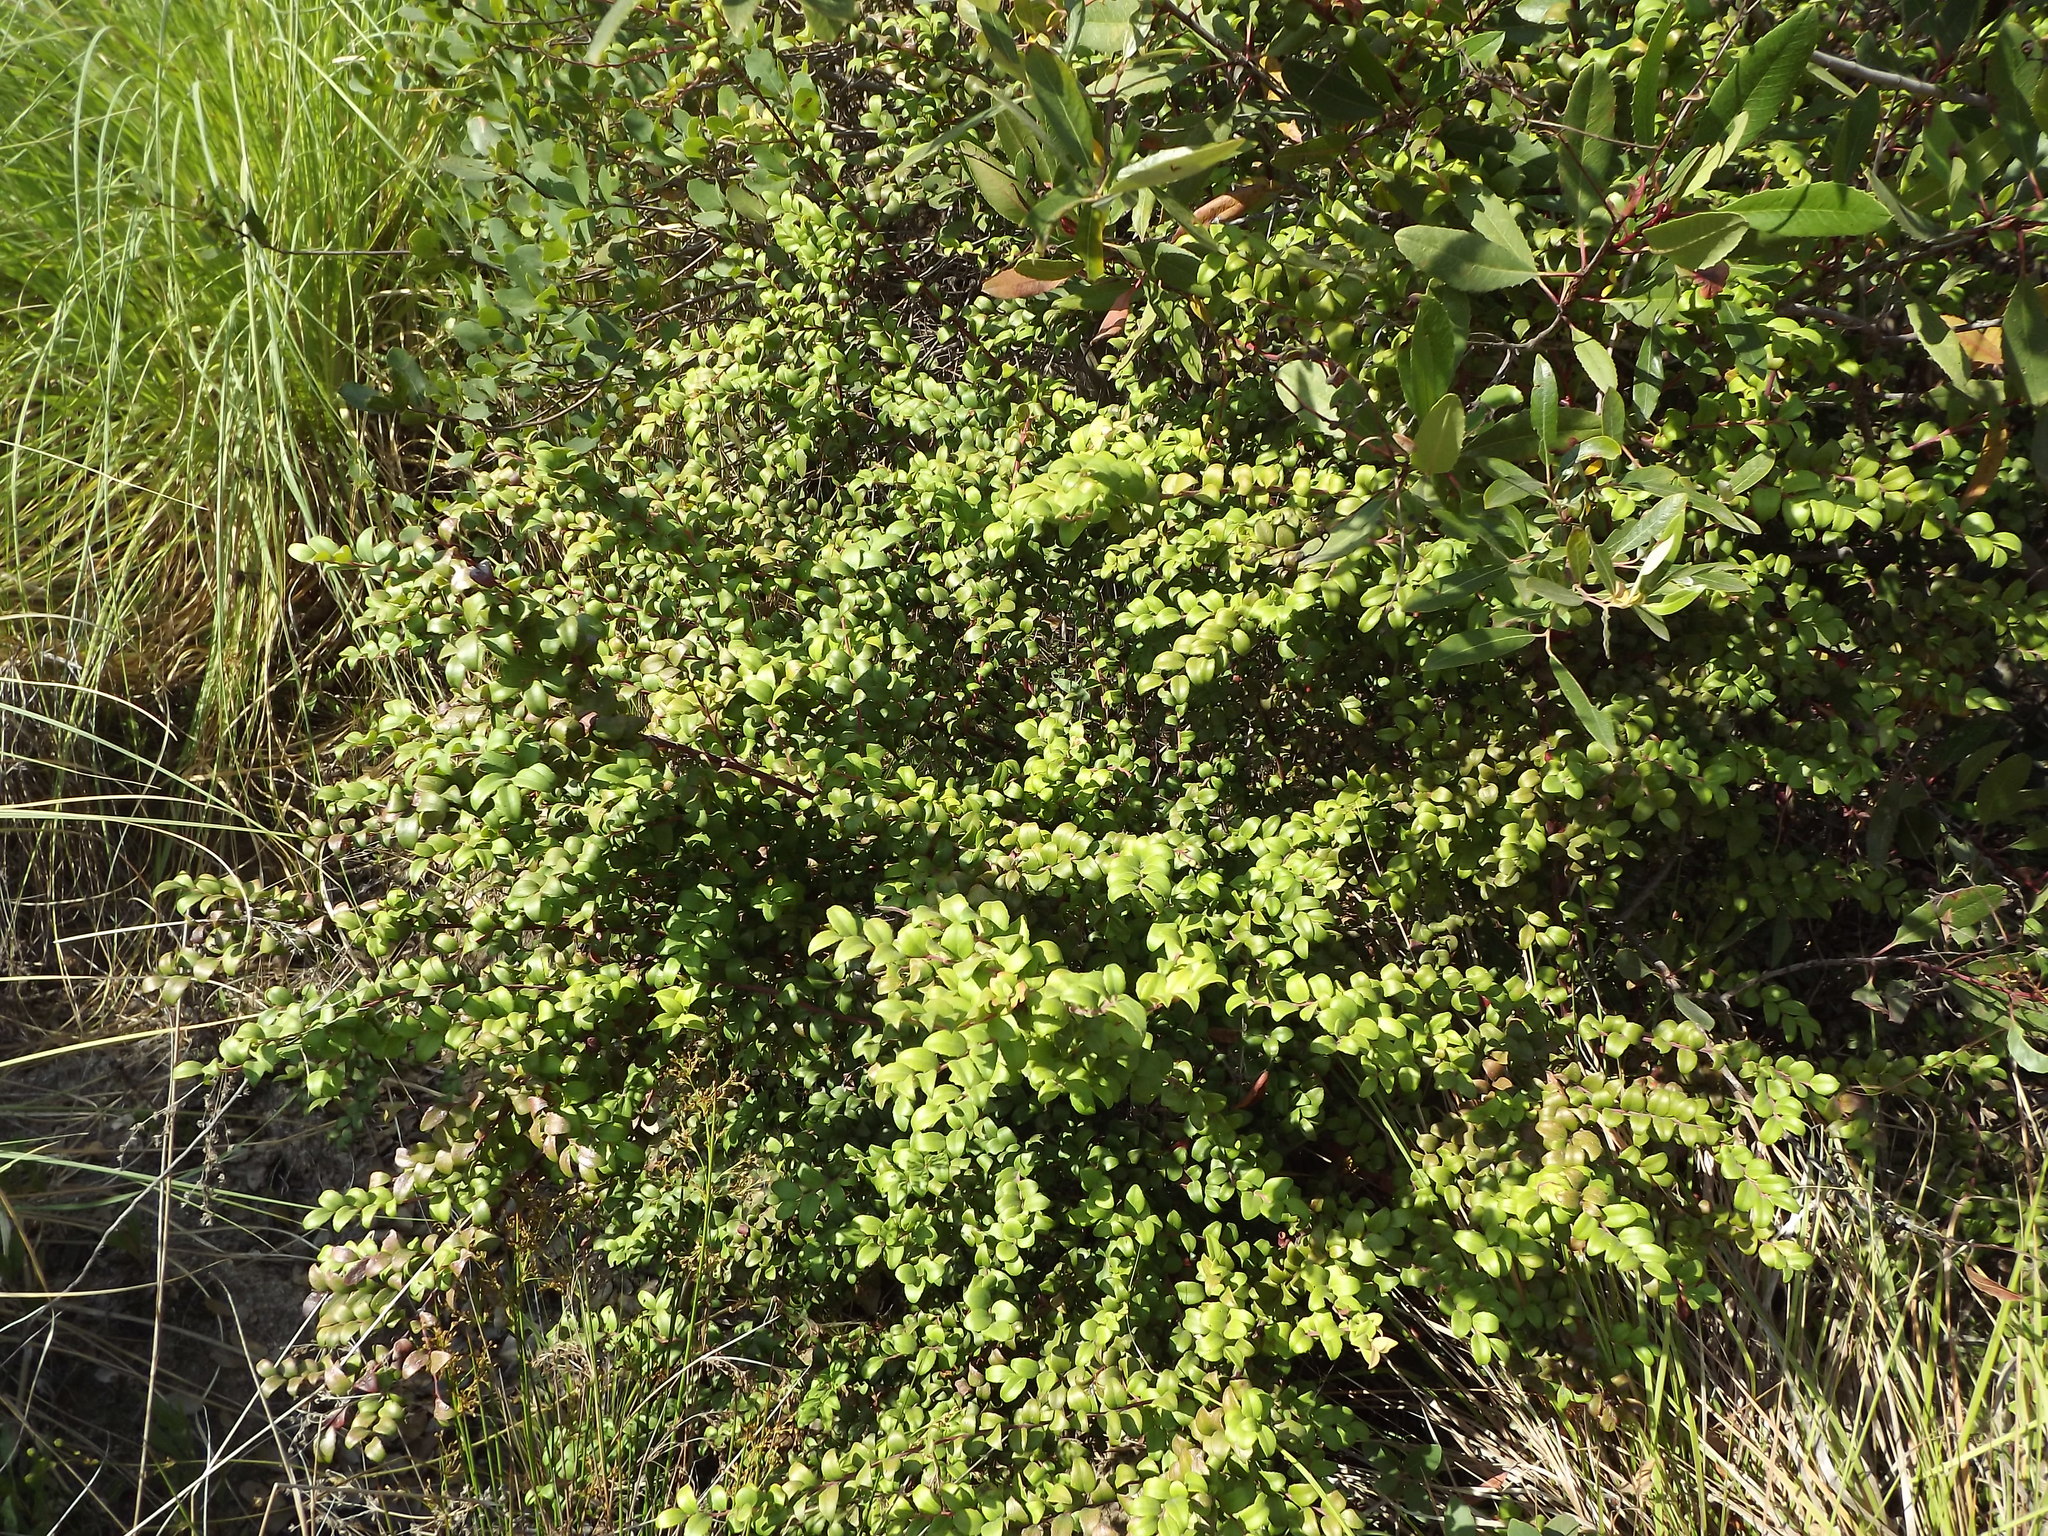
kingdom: Plantae
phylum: Tracheophyta
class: Magnoliopsida
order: Ericales
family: Ericaceae
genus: Vaccinium
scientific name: Vaccinium ovatum
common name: California-huckleberry
